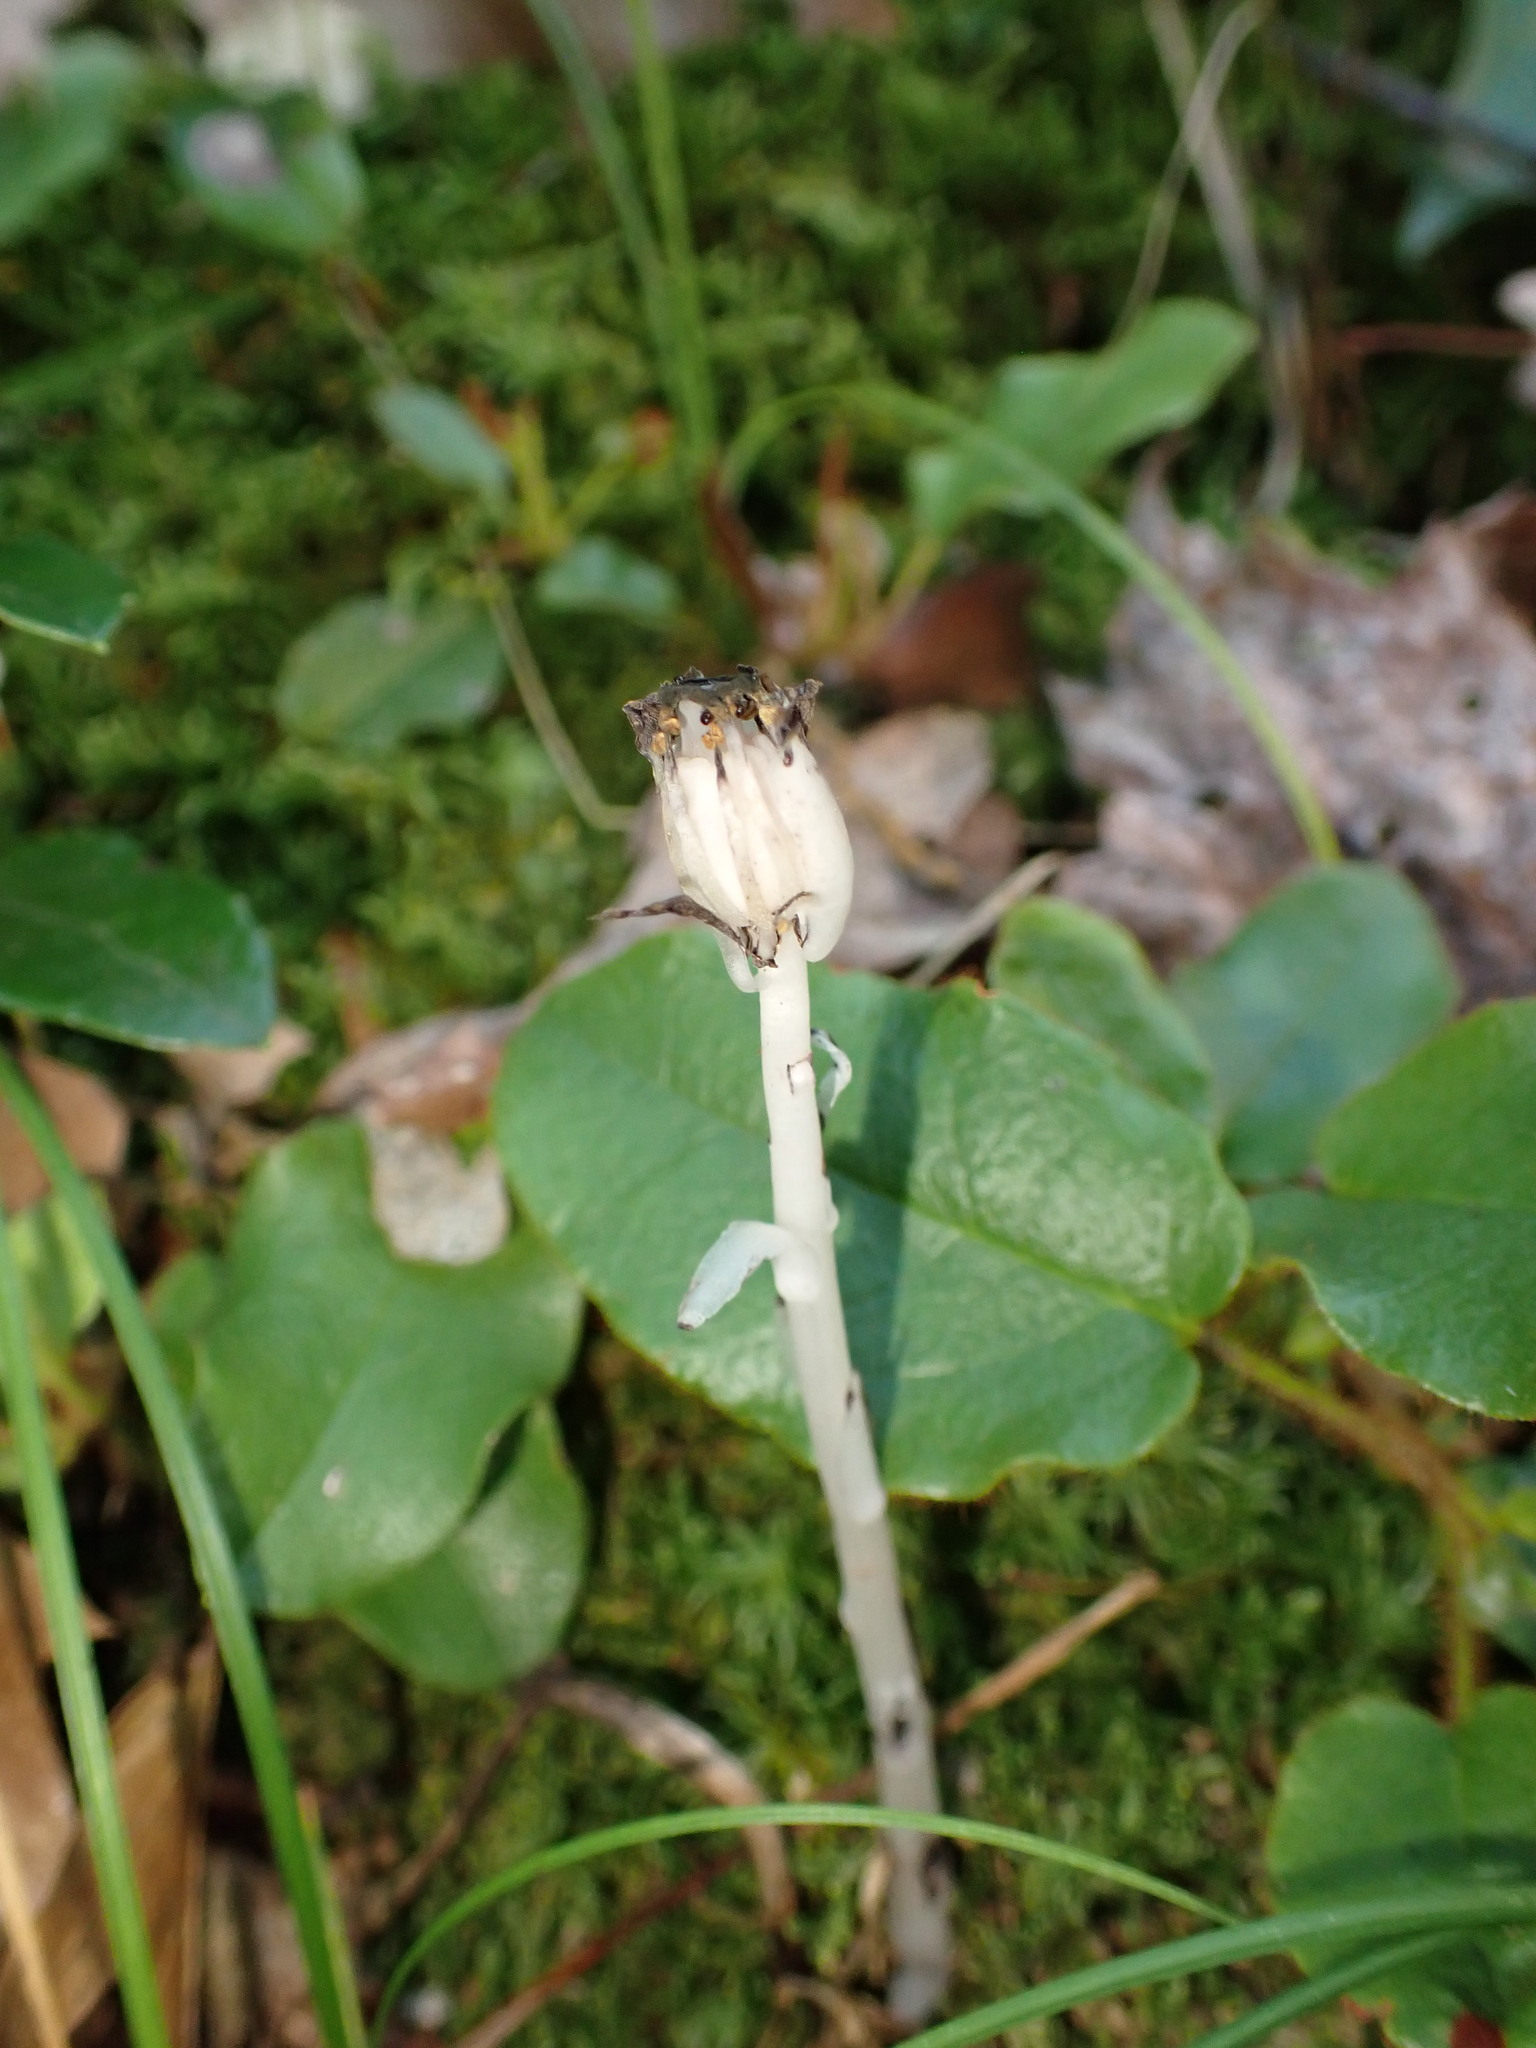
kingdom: Plantae
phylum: Tracheophyta
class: Magnoliopsida
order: Ericales
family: Ericaceae
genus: Monotropa
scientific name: Monotropa uniflora
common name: Convulsion root
